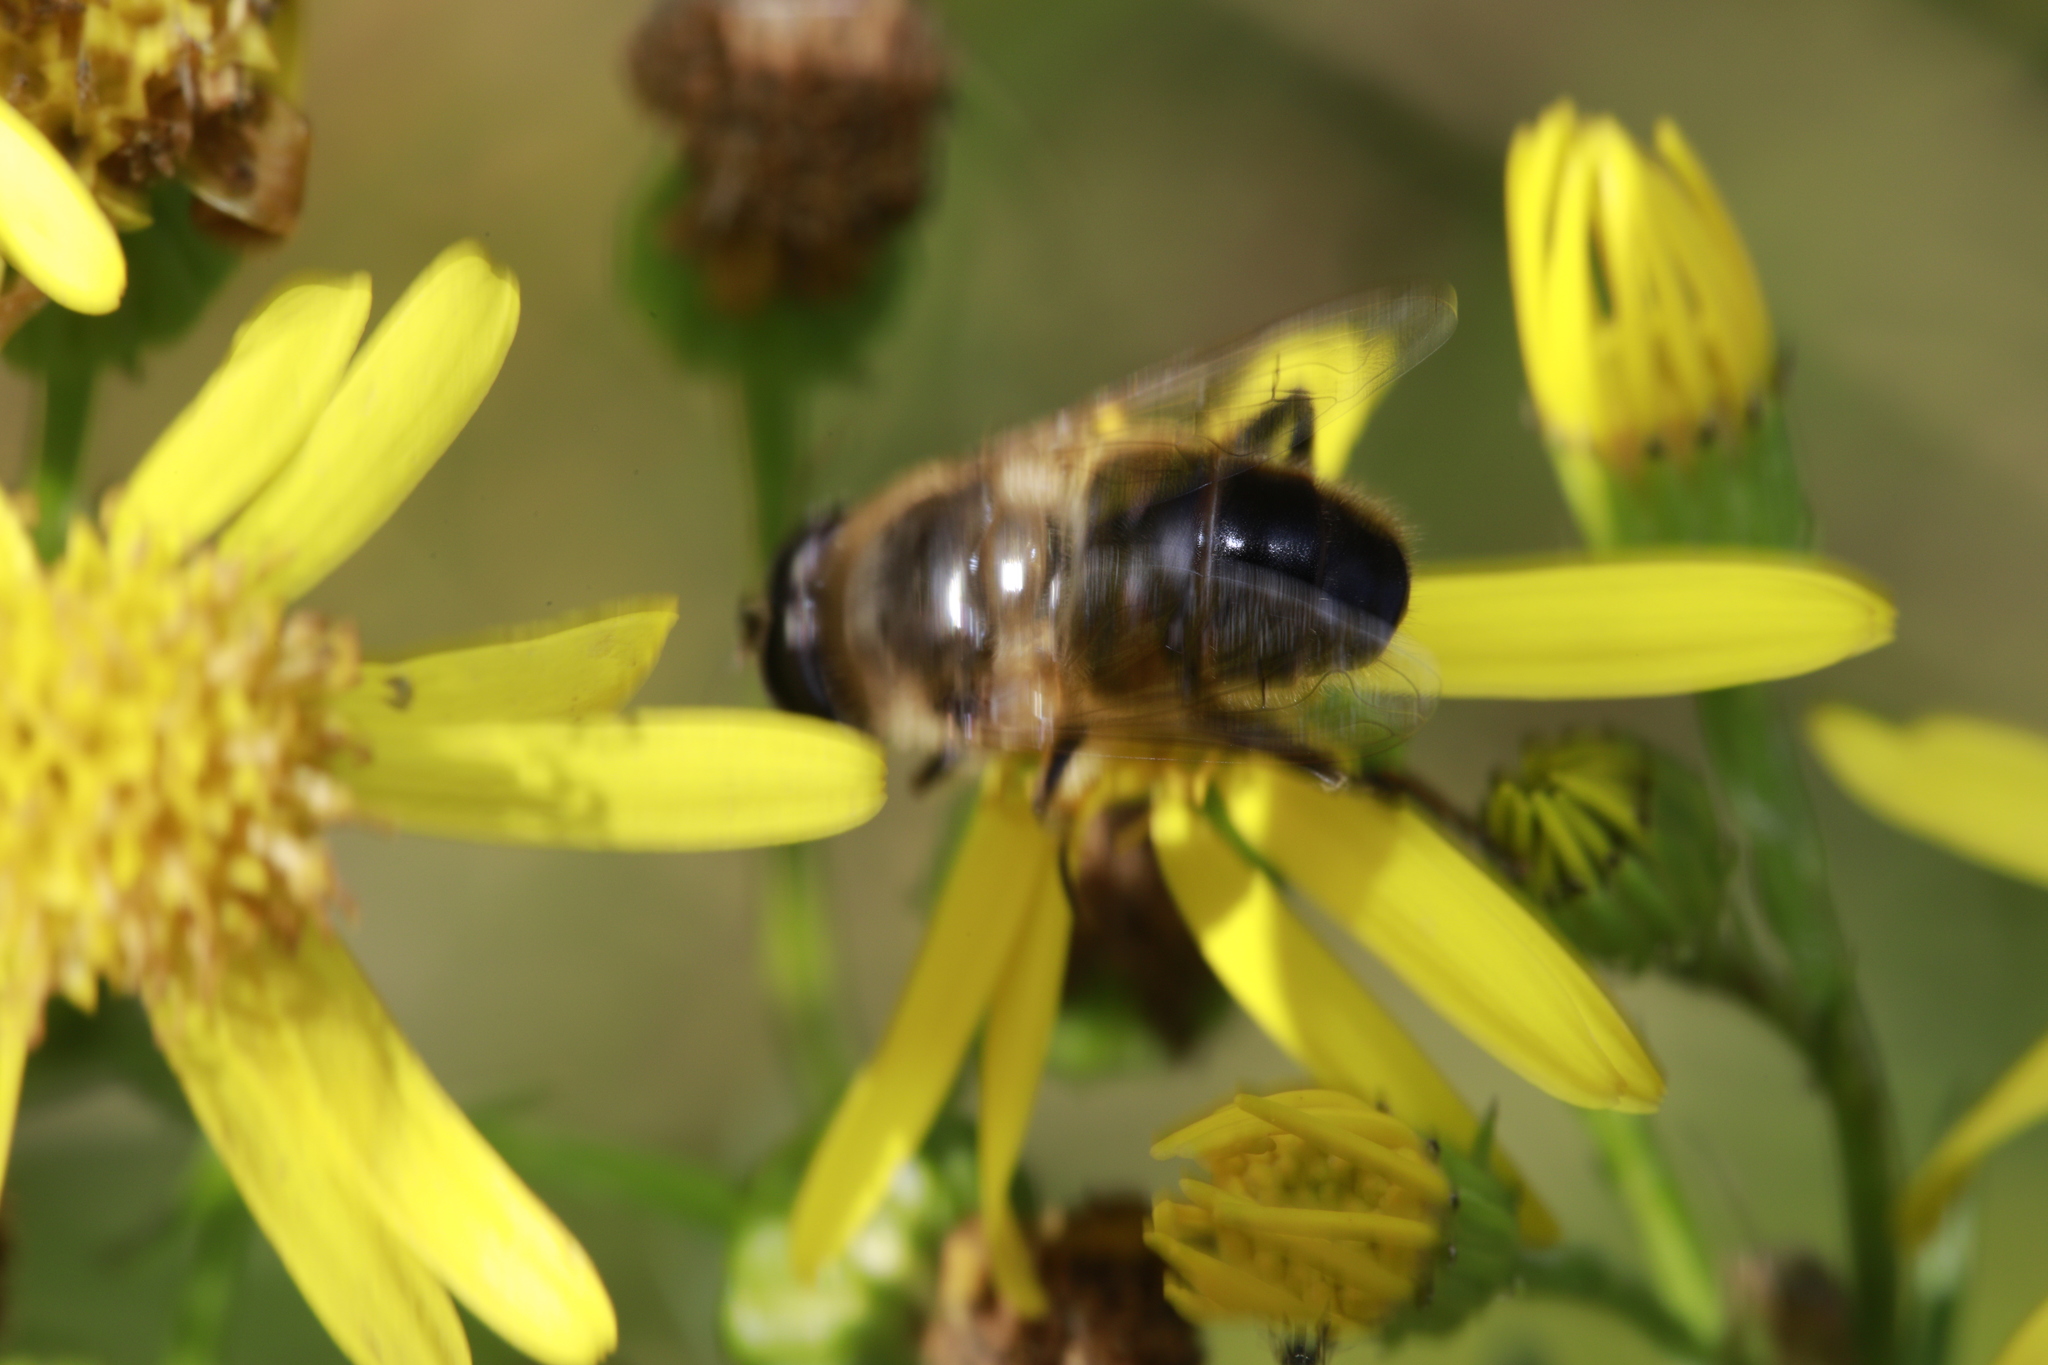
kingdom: Animalia
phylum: Arthropoda
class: Insecta
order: Diptera
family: Syrphidae
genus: Eristalis
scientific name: Eristalis tenax
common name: Drone fly
